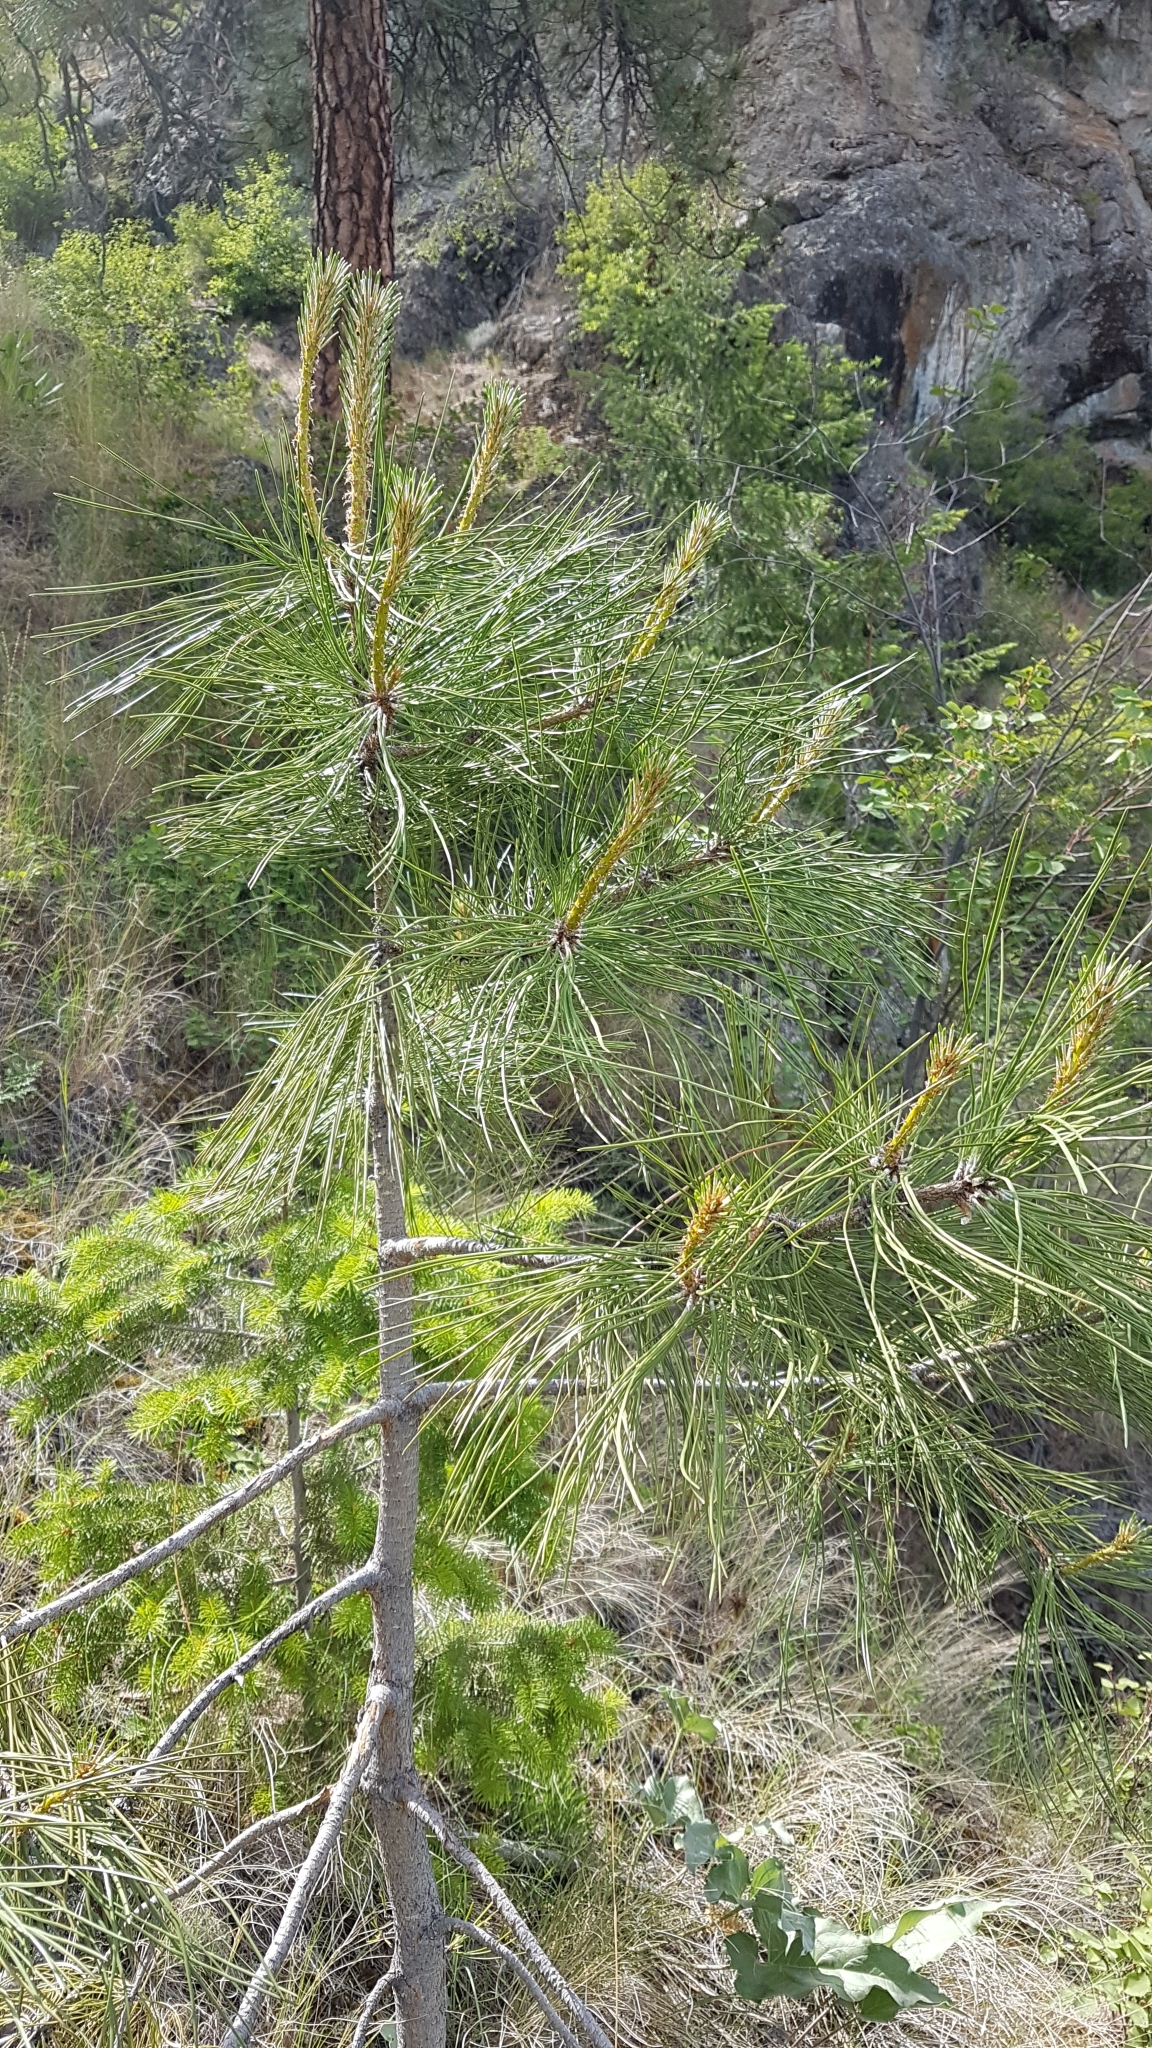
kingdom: Plantae
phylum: Tracheophyta
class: Pinopsida
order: Pinales
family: Pinaceae
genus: Pinus
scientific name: Pinus ponderosa
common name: Western yellow-pine
